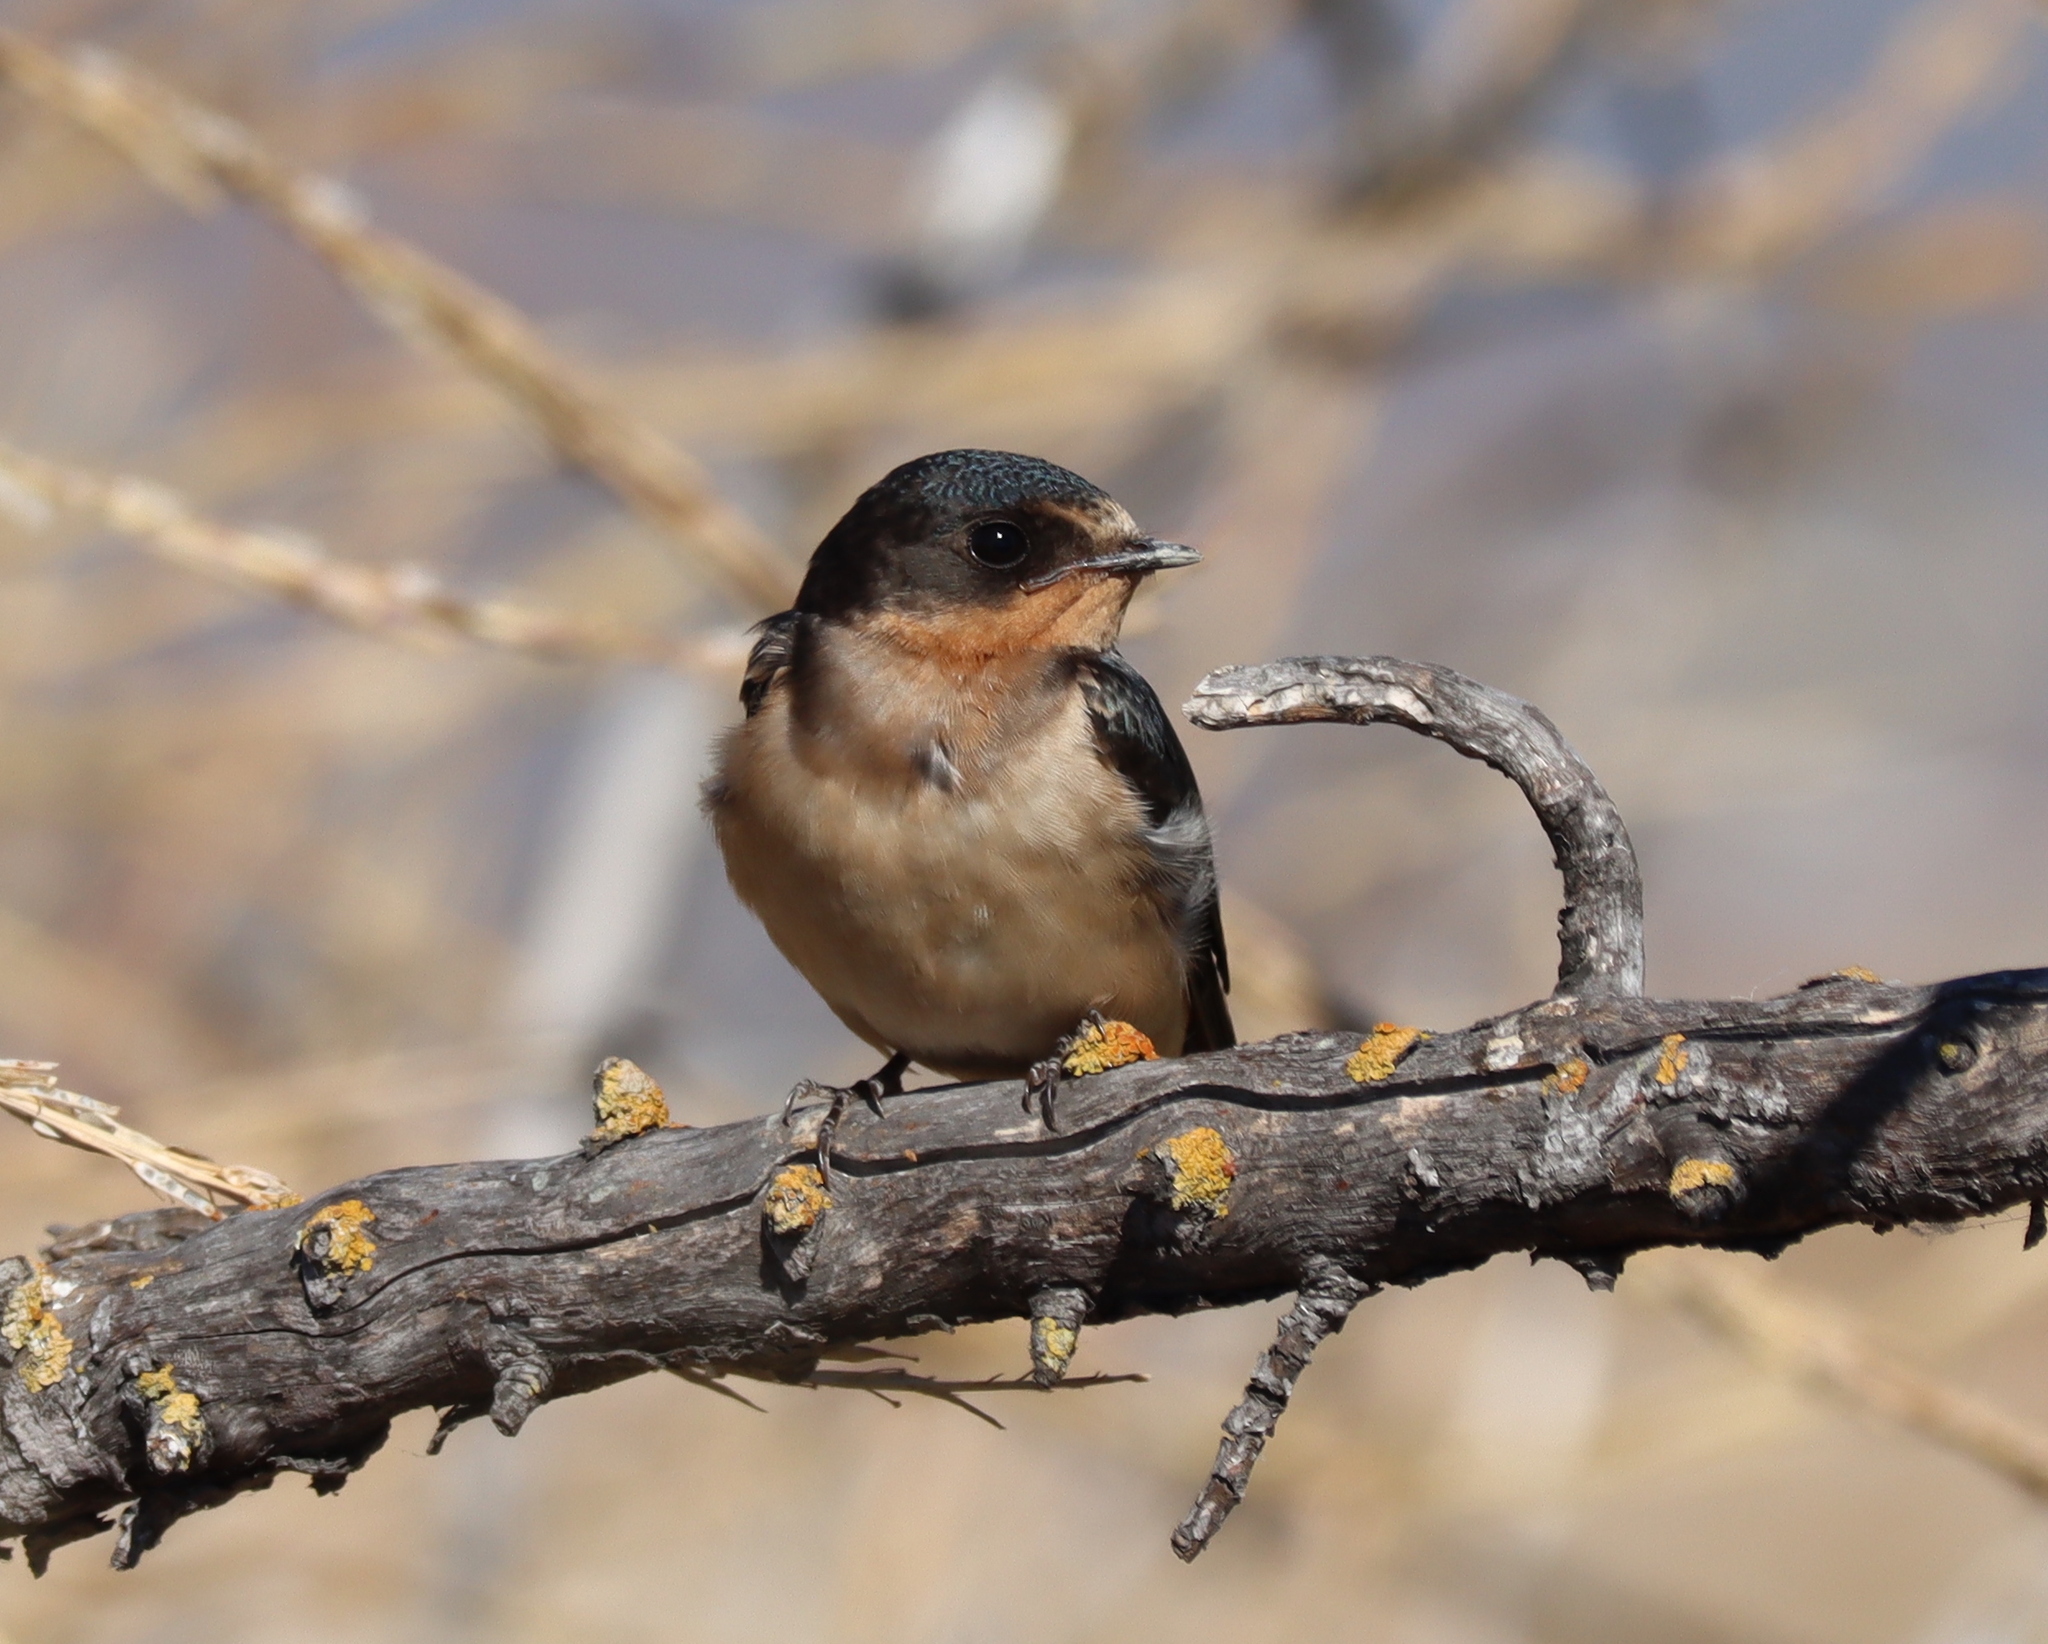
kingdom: Animalia
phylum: Chordata
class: Aves
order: Passeriformes
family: Hirundinidae
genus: Hirundo
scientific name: Hirundo rustica
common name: Barn swallow
